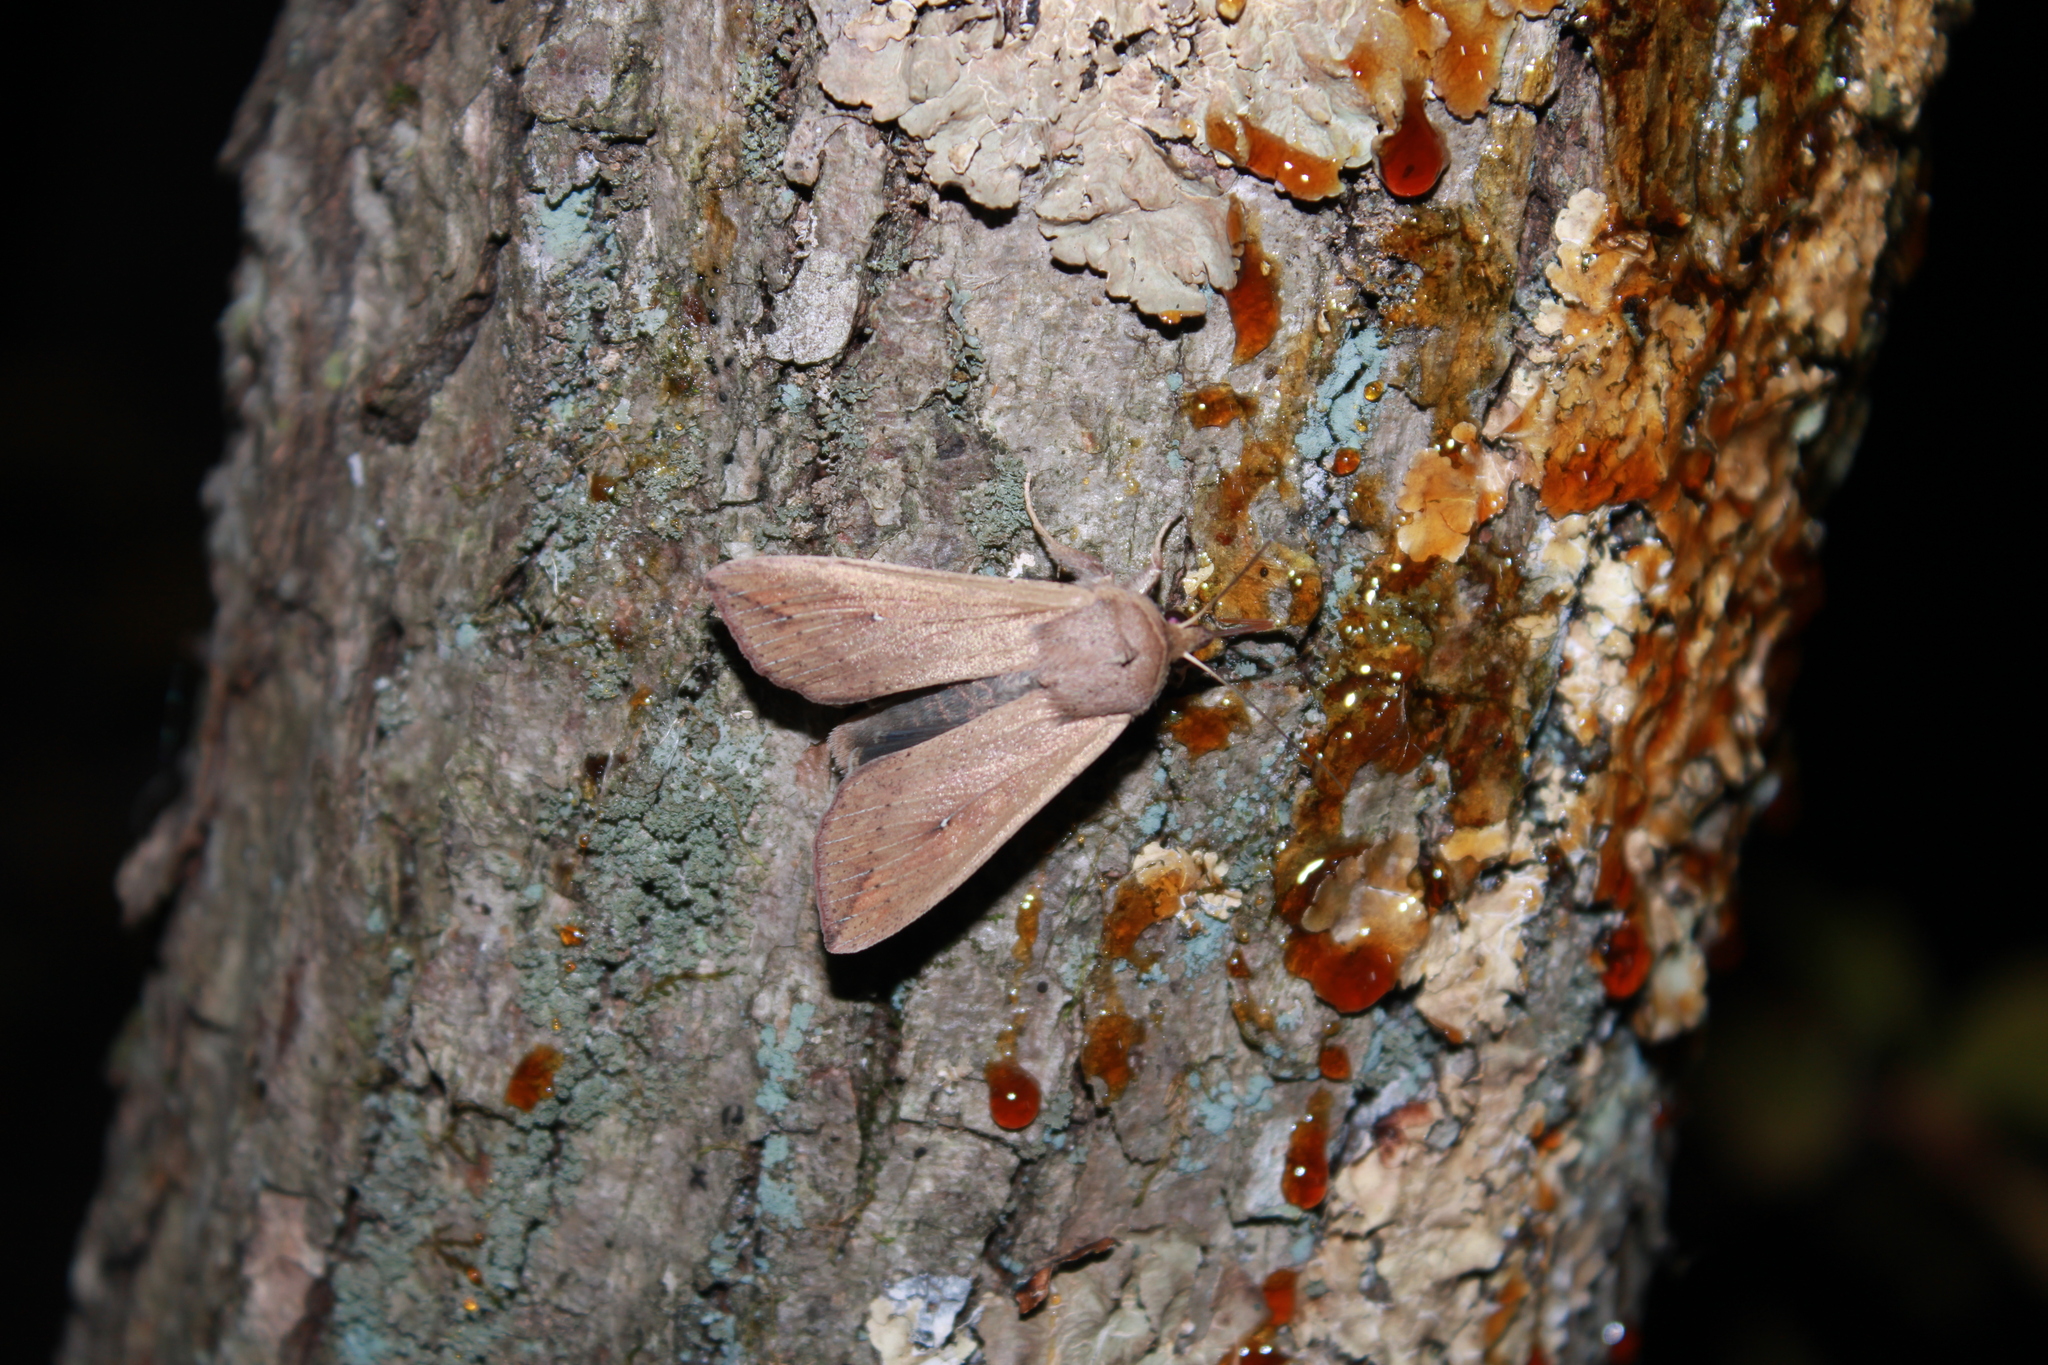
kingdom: Animalia
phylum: Arthropoda
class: Insecta
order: Lepidoptera
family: Noctuidae
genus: Mythimna
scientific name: Mythimna unipuncta
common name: White-speck
